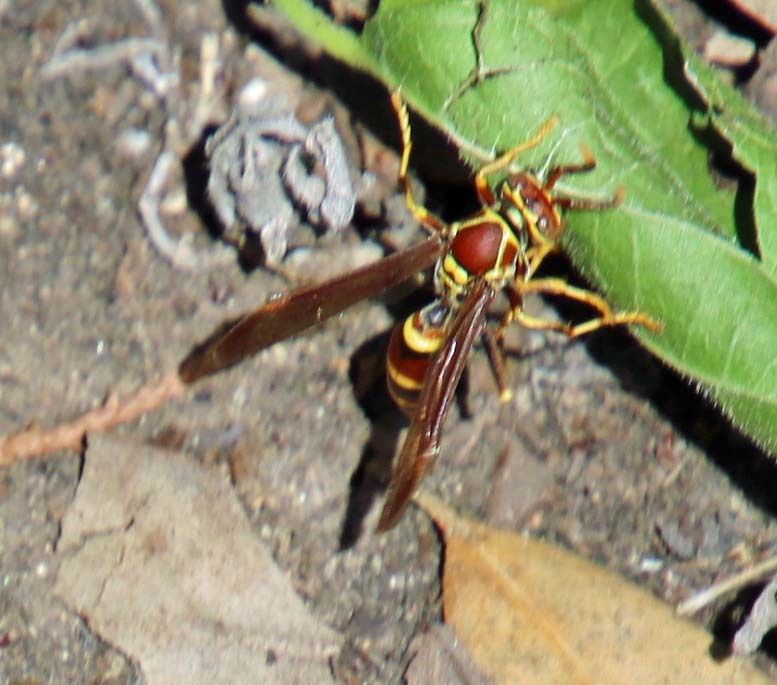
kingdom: Animalia
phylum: Arthropoda
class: Insecta
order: Hymenoptera
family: Eumenidae
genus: Polistes
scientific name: Polistes exclamans
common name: Paper wasp
